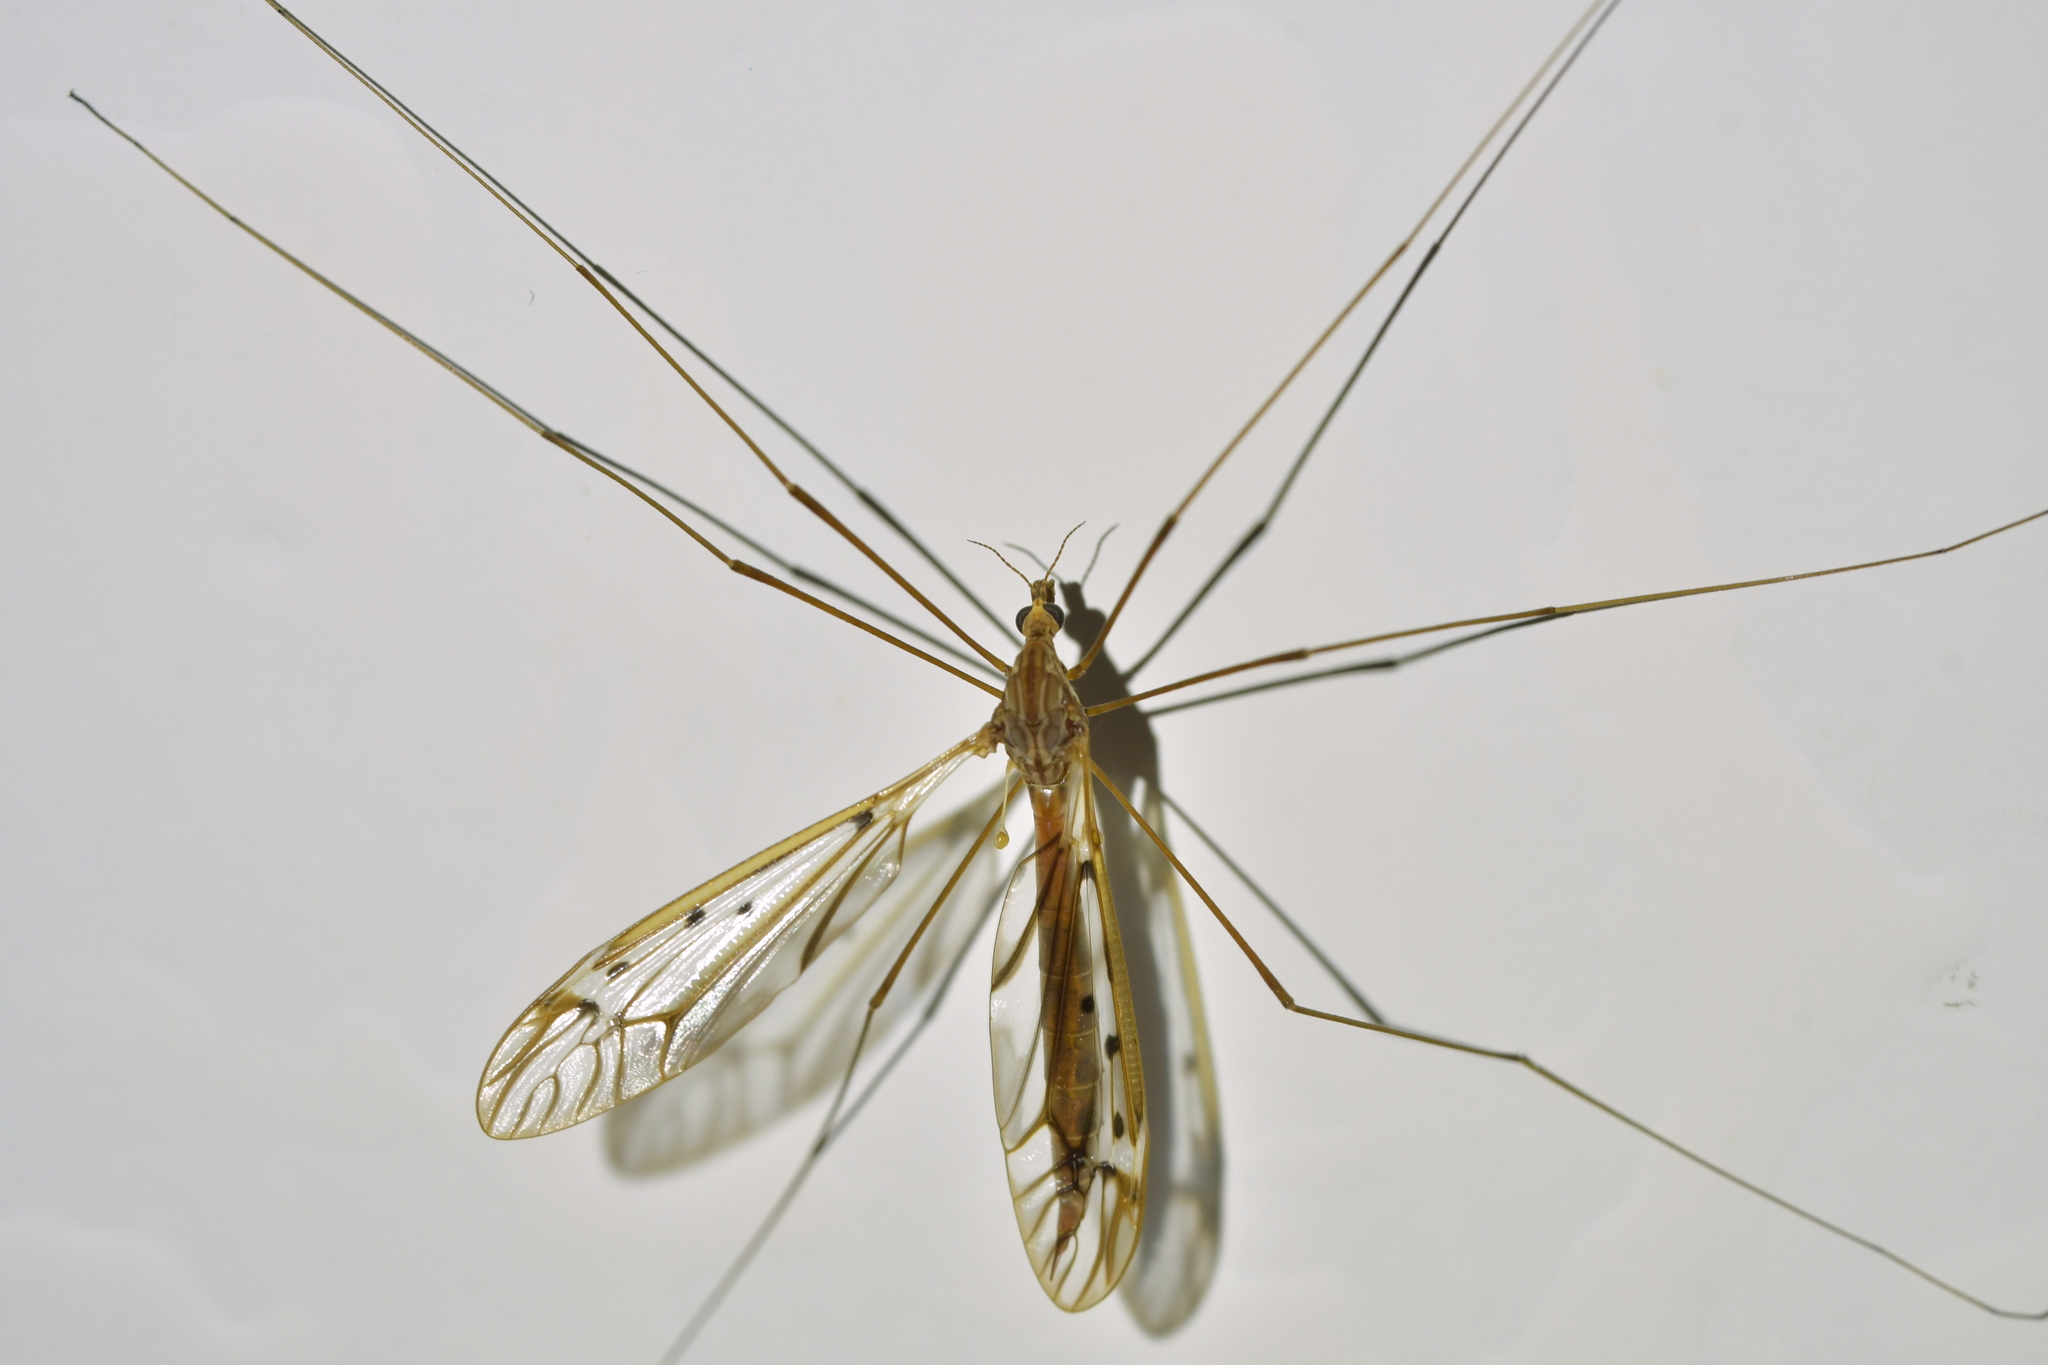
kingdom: Animalia
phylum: Arthropoda
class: Insecta
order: Diptera
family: Tipulidae
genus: Zelandotipula
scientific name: Zelandotipula novarae
